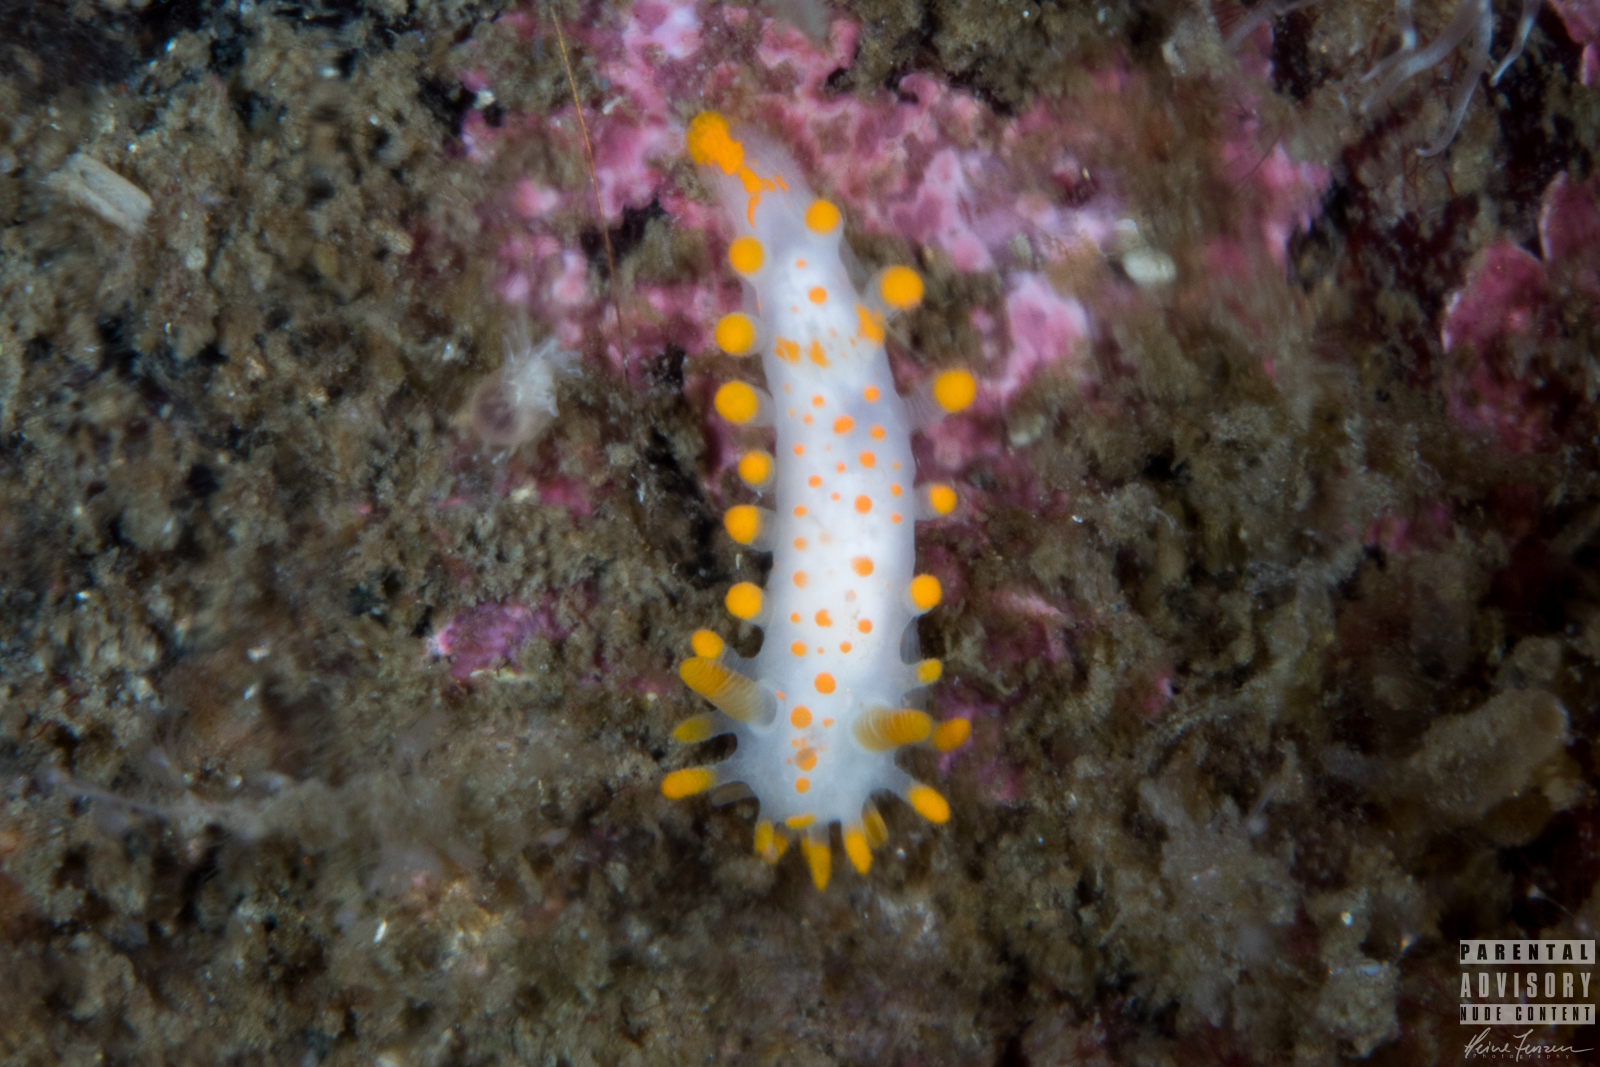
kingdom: Animalia
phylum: Mollusca
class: Gastropoda
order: Nudibranchia
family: Polyceridae
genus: Limacia
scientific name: Limacia clavigera
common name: Orange-clubbed sea slug
